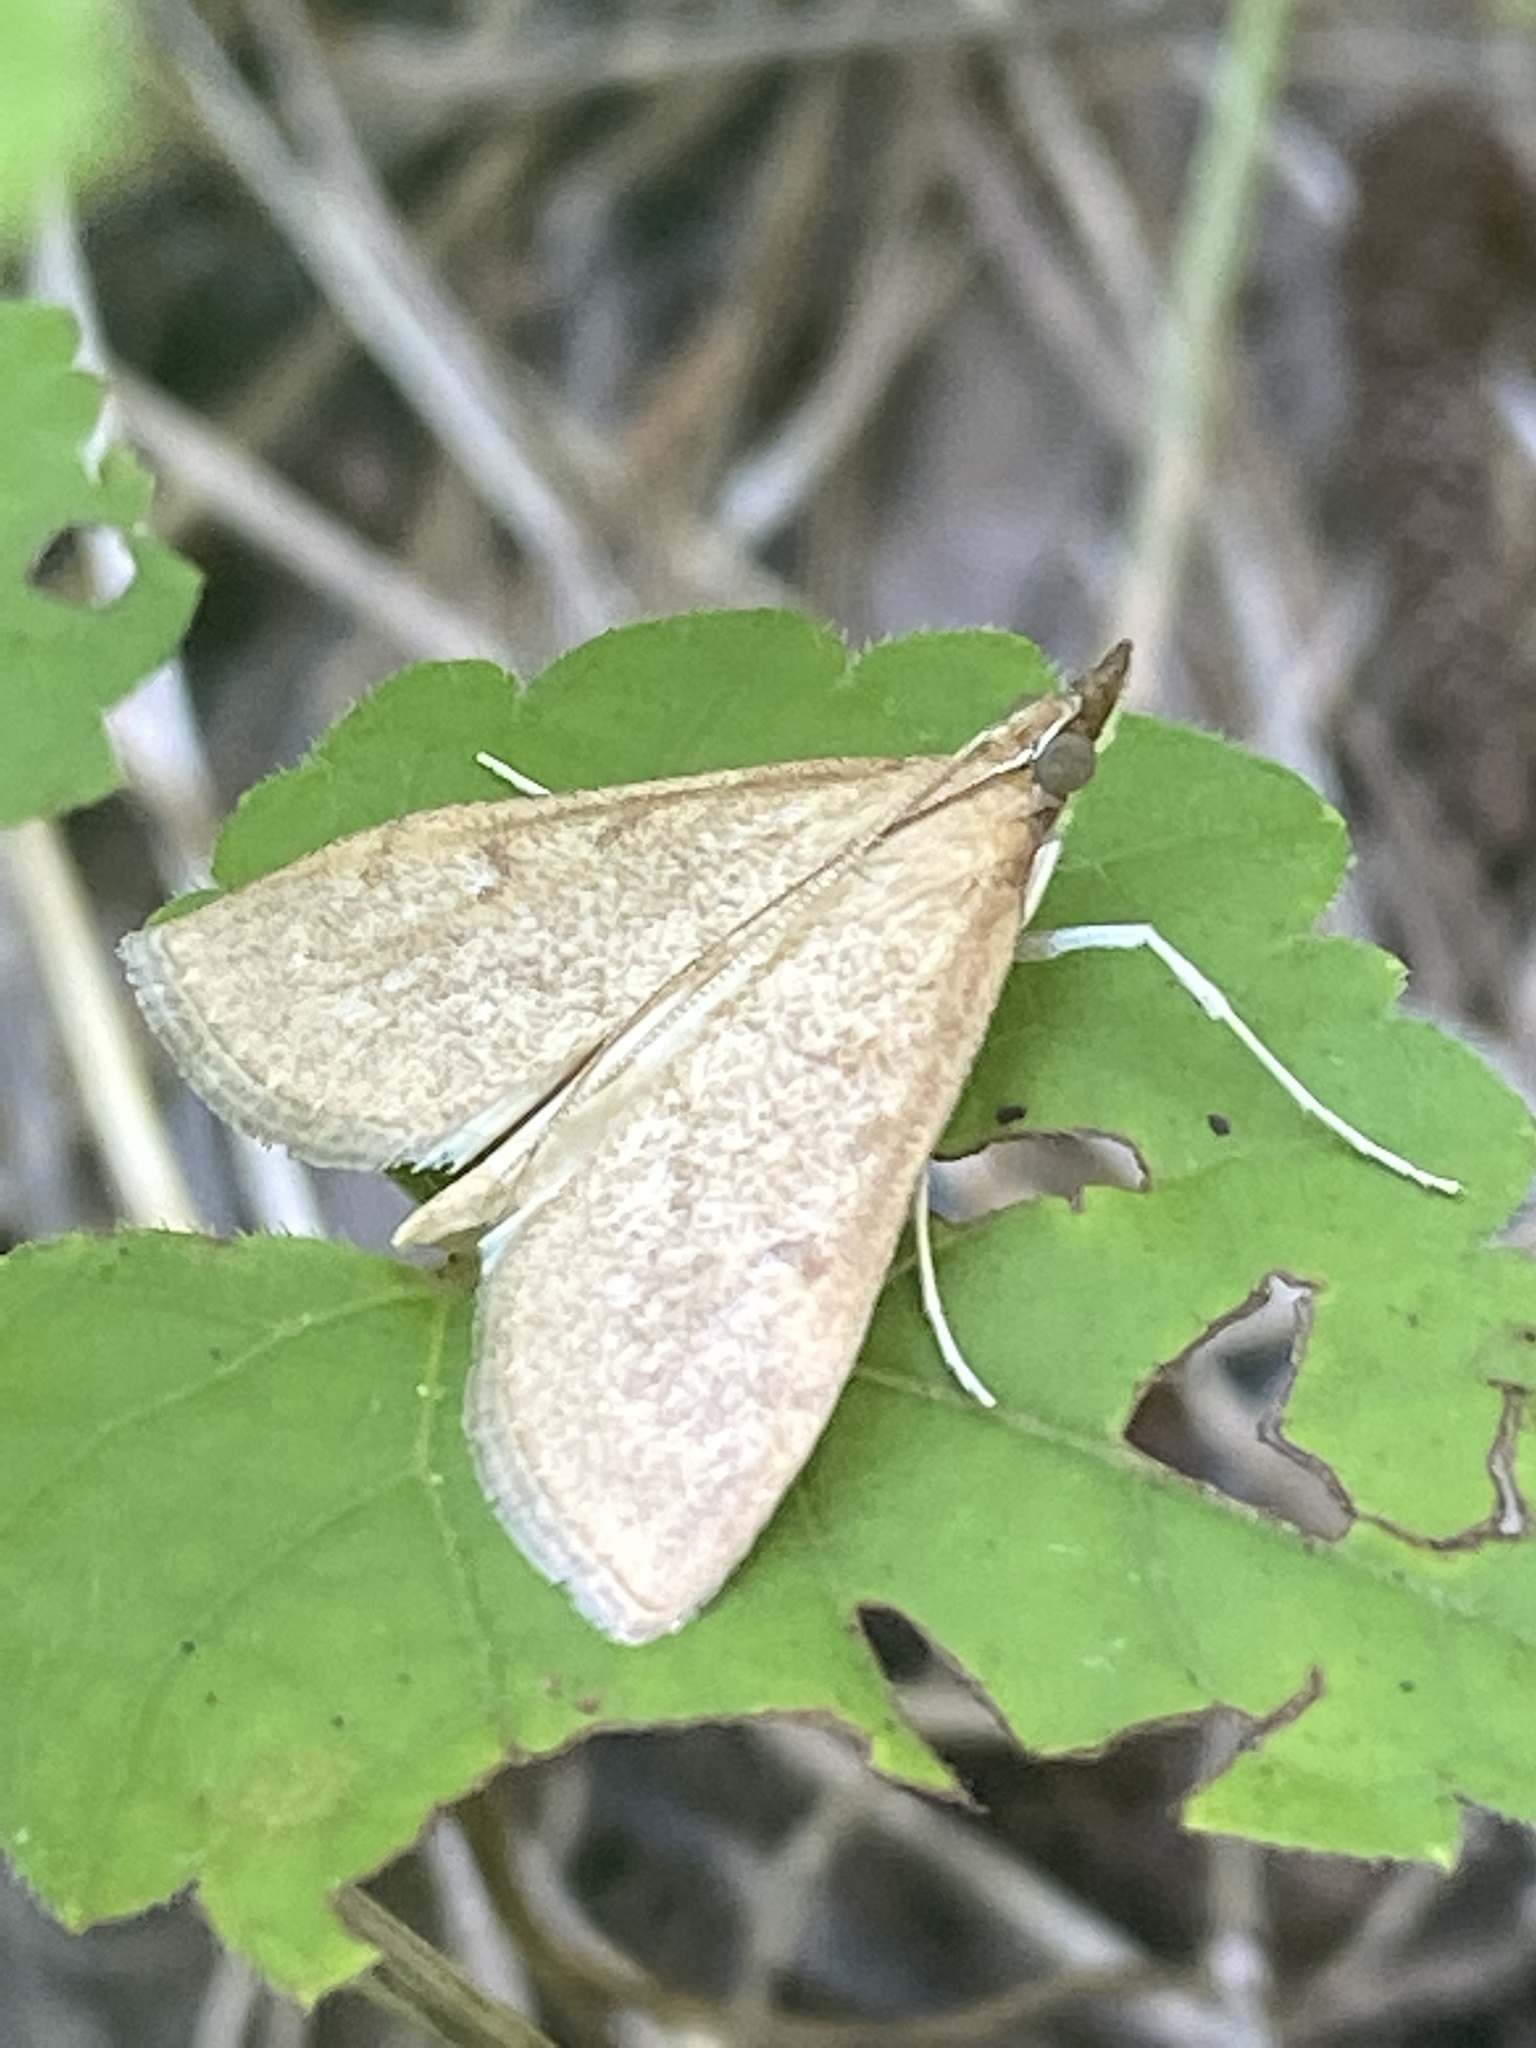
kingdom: Animalia
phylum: Arthropoda
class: Insecta
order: Lepidoptera
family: Crambidae
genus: Saucrobotys
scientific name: Saucrobotys futilalis
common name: Dogbane saucrobotys moth
